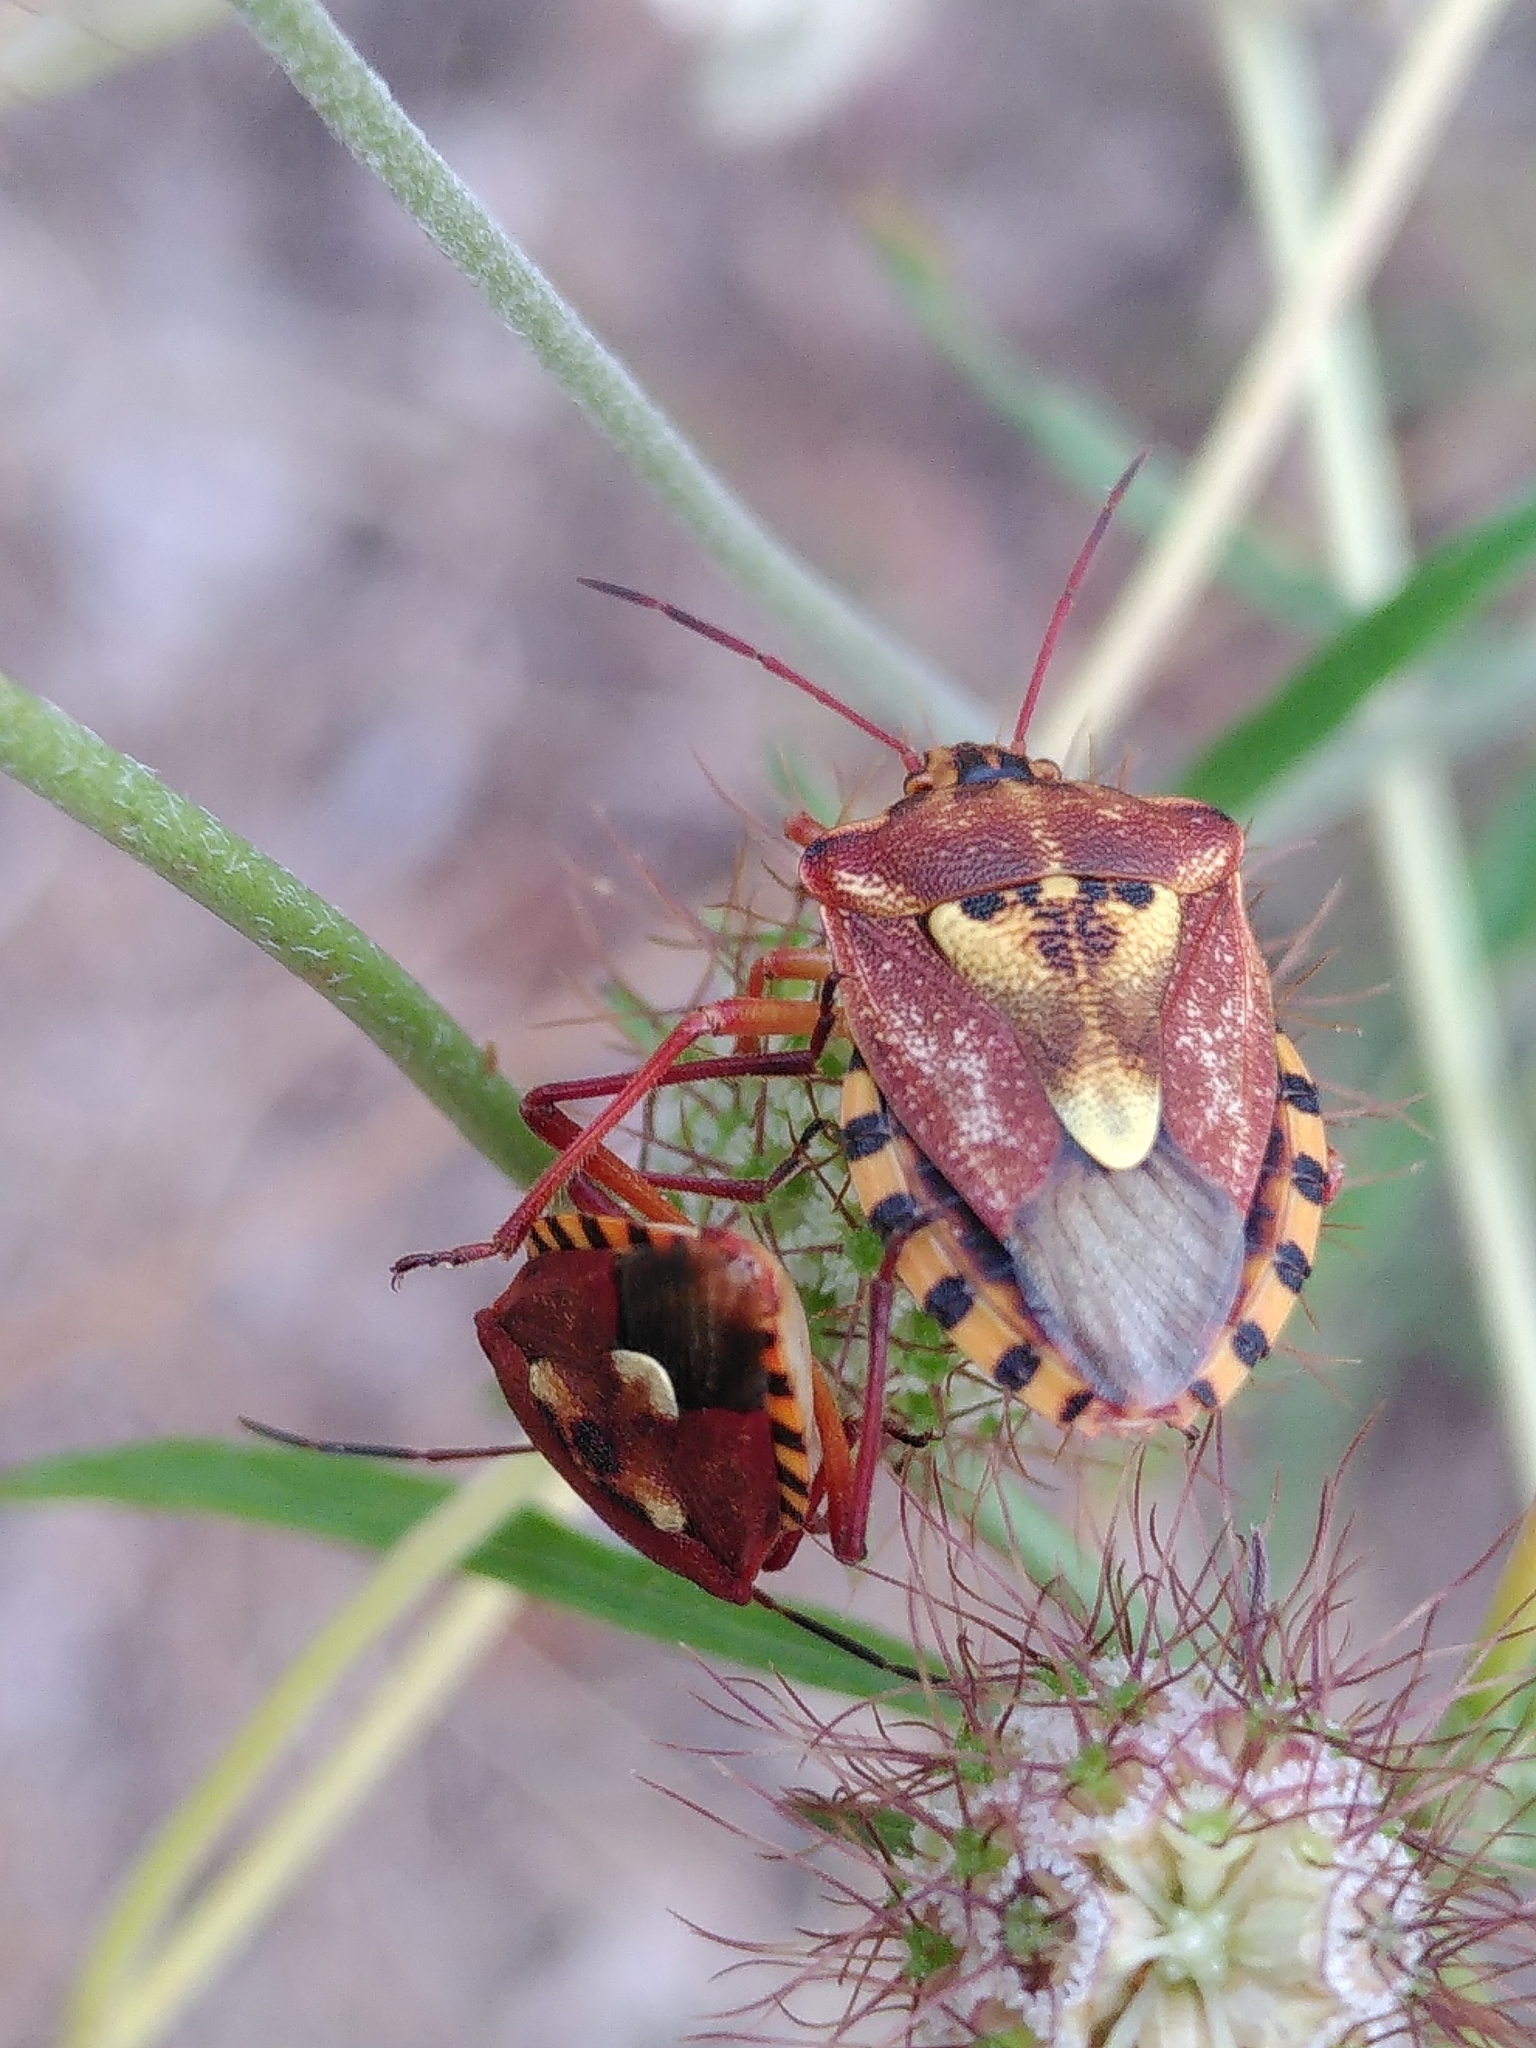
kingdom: Animalia
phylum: Arthropoda
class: Insecta
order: Hemiptera
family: Miridae
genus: Orthops
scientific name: Orthops kalmii
